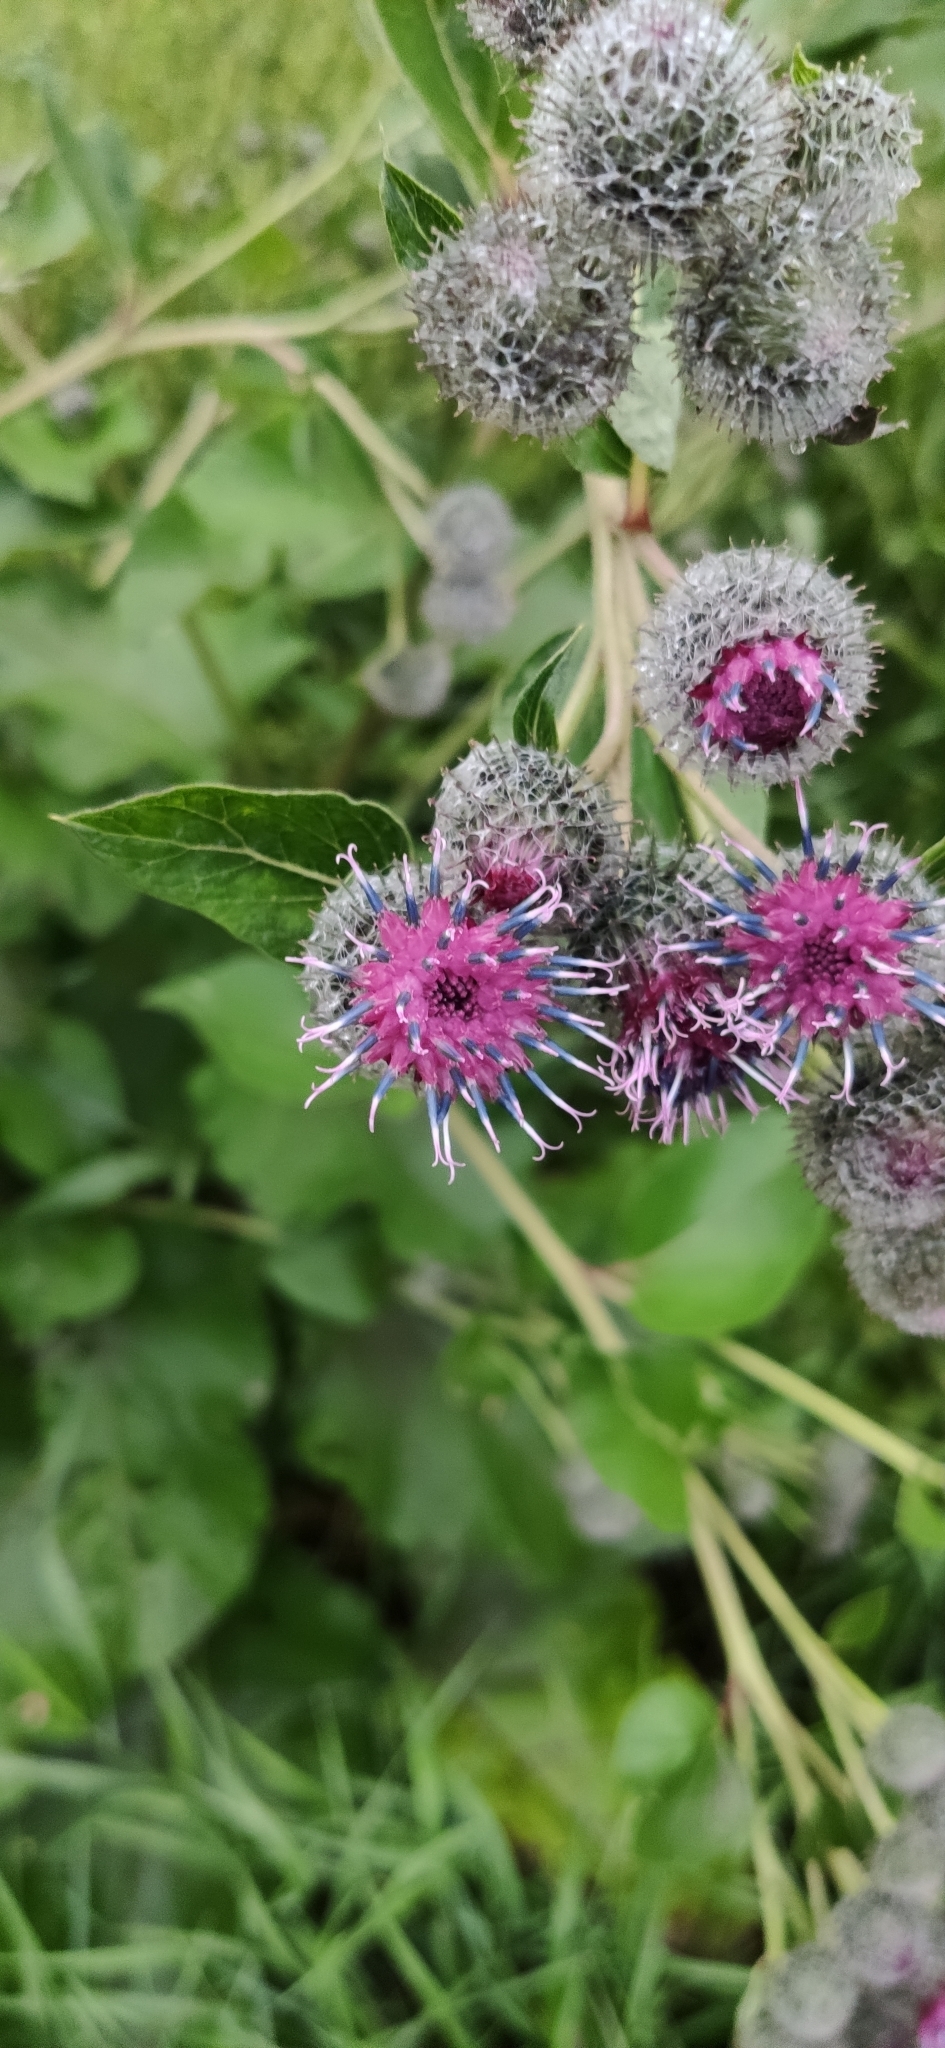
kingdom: Plantae
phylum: Tracheophyta
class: Magnoliopsida
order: Asterales
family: Asteraceae
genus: Arctium
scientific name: Arctium tomentosum
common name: Woolly burdock
